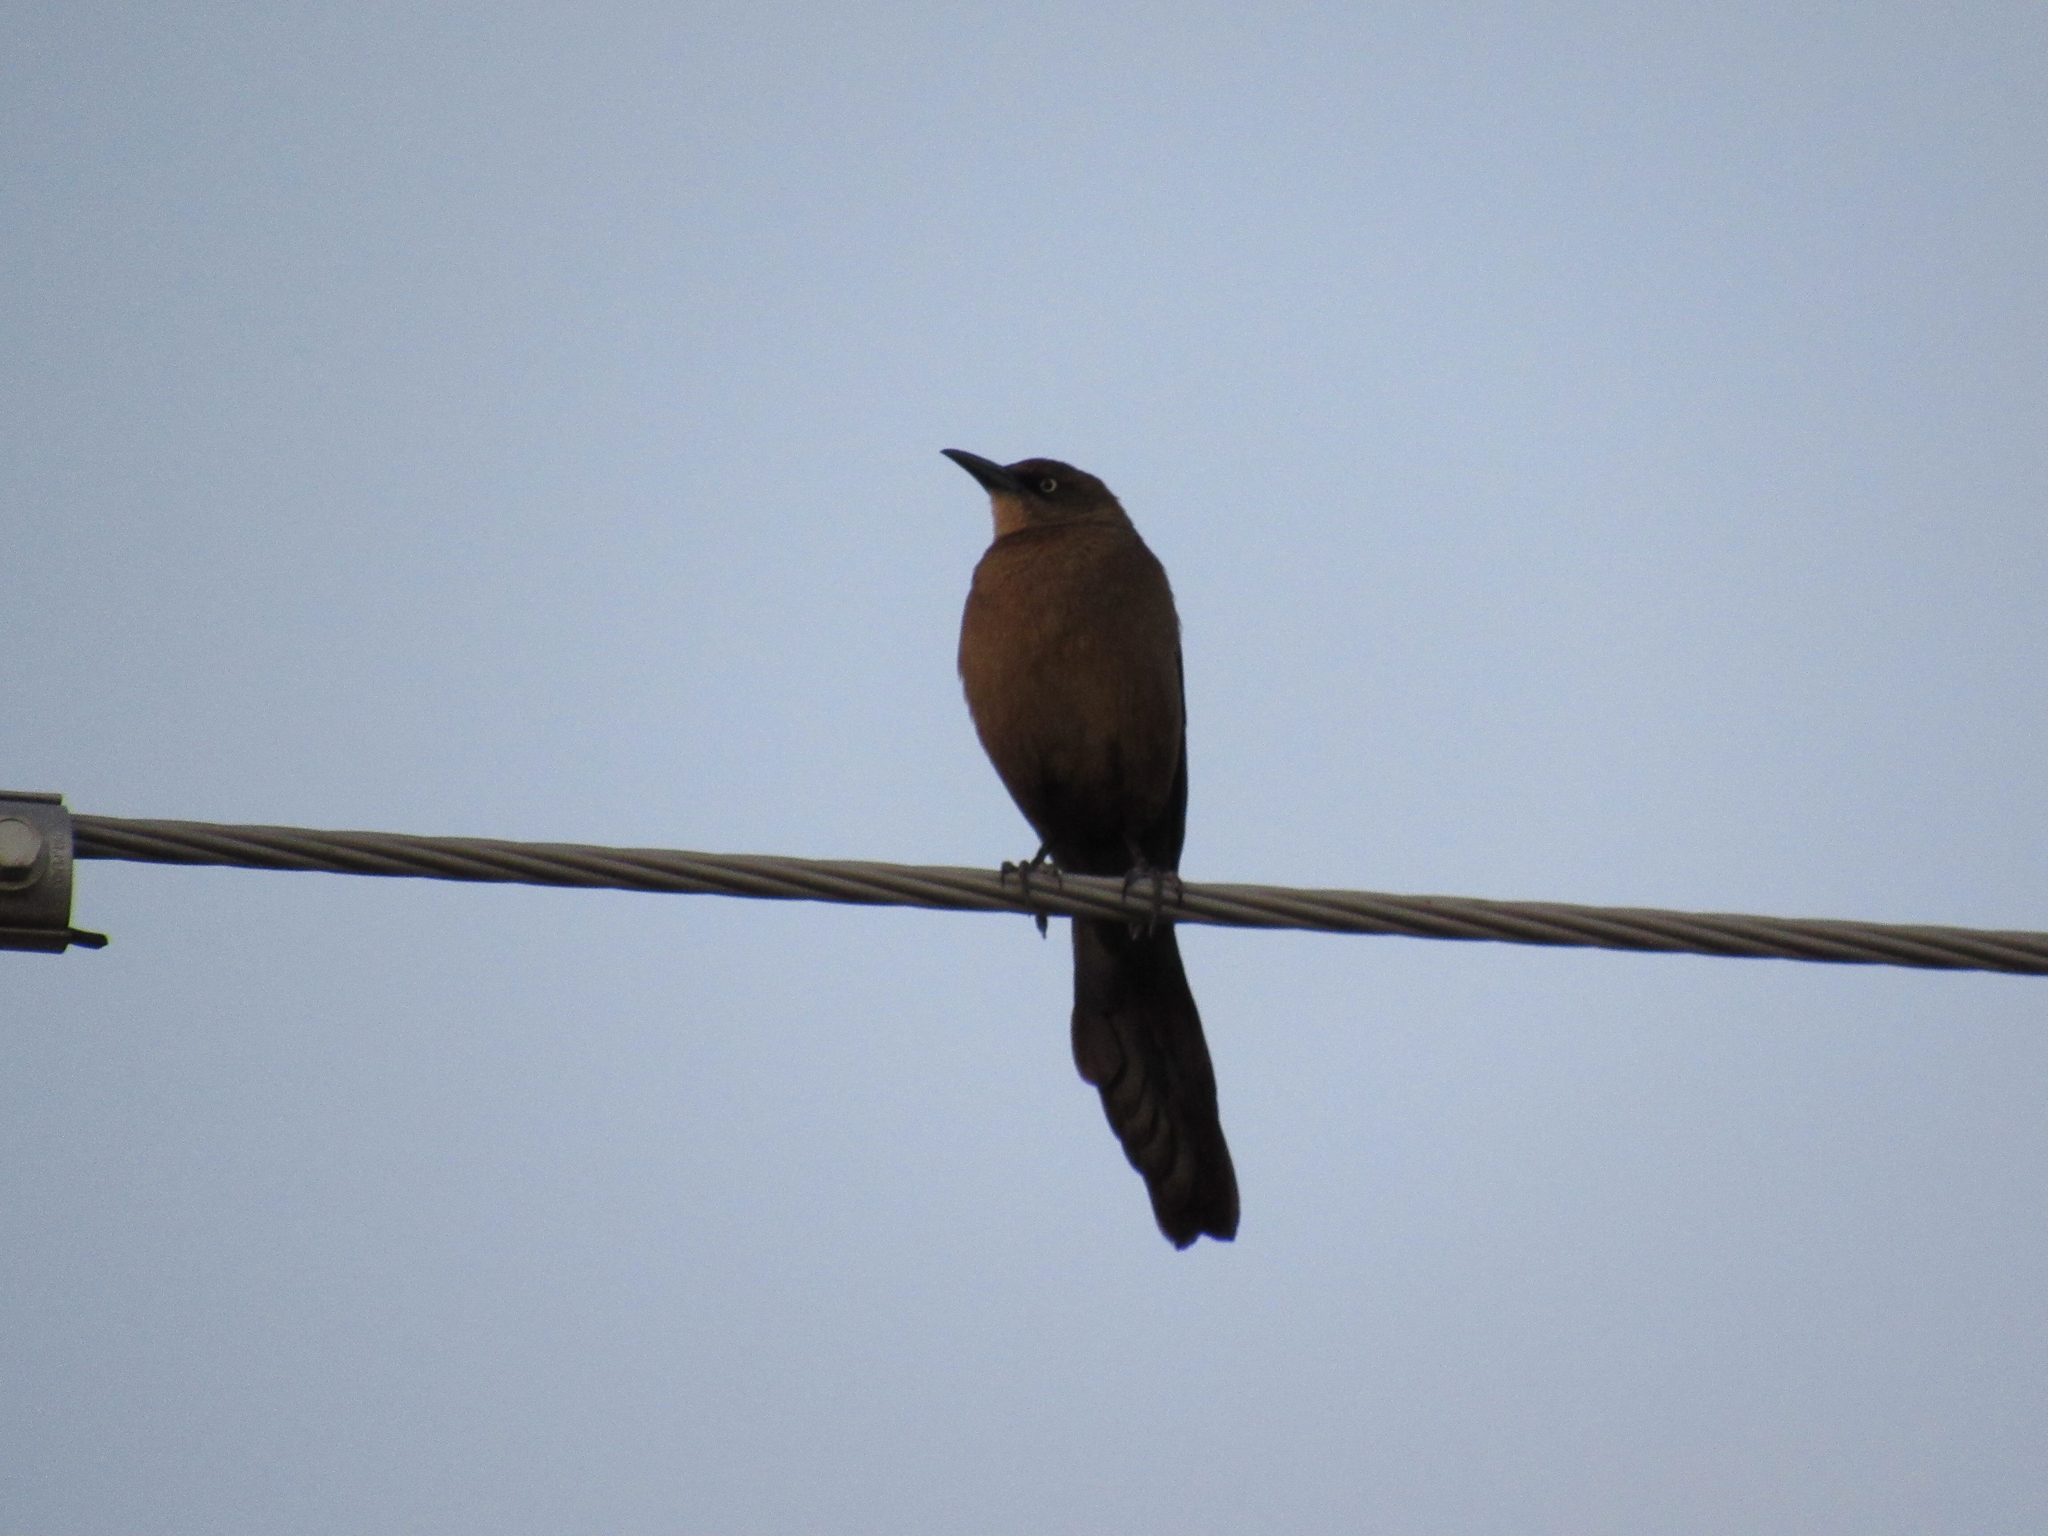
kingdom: Animalia
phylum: Chordata
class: Aves
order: Passeriformes
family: Icteridae
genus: Quiscalus
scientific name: Quiscalus mexicanus
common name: Great-tailed grackle
